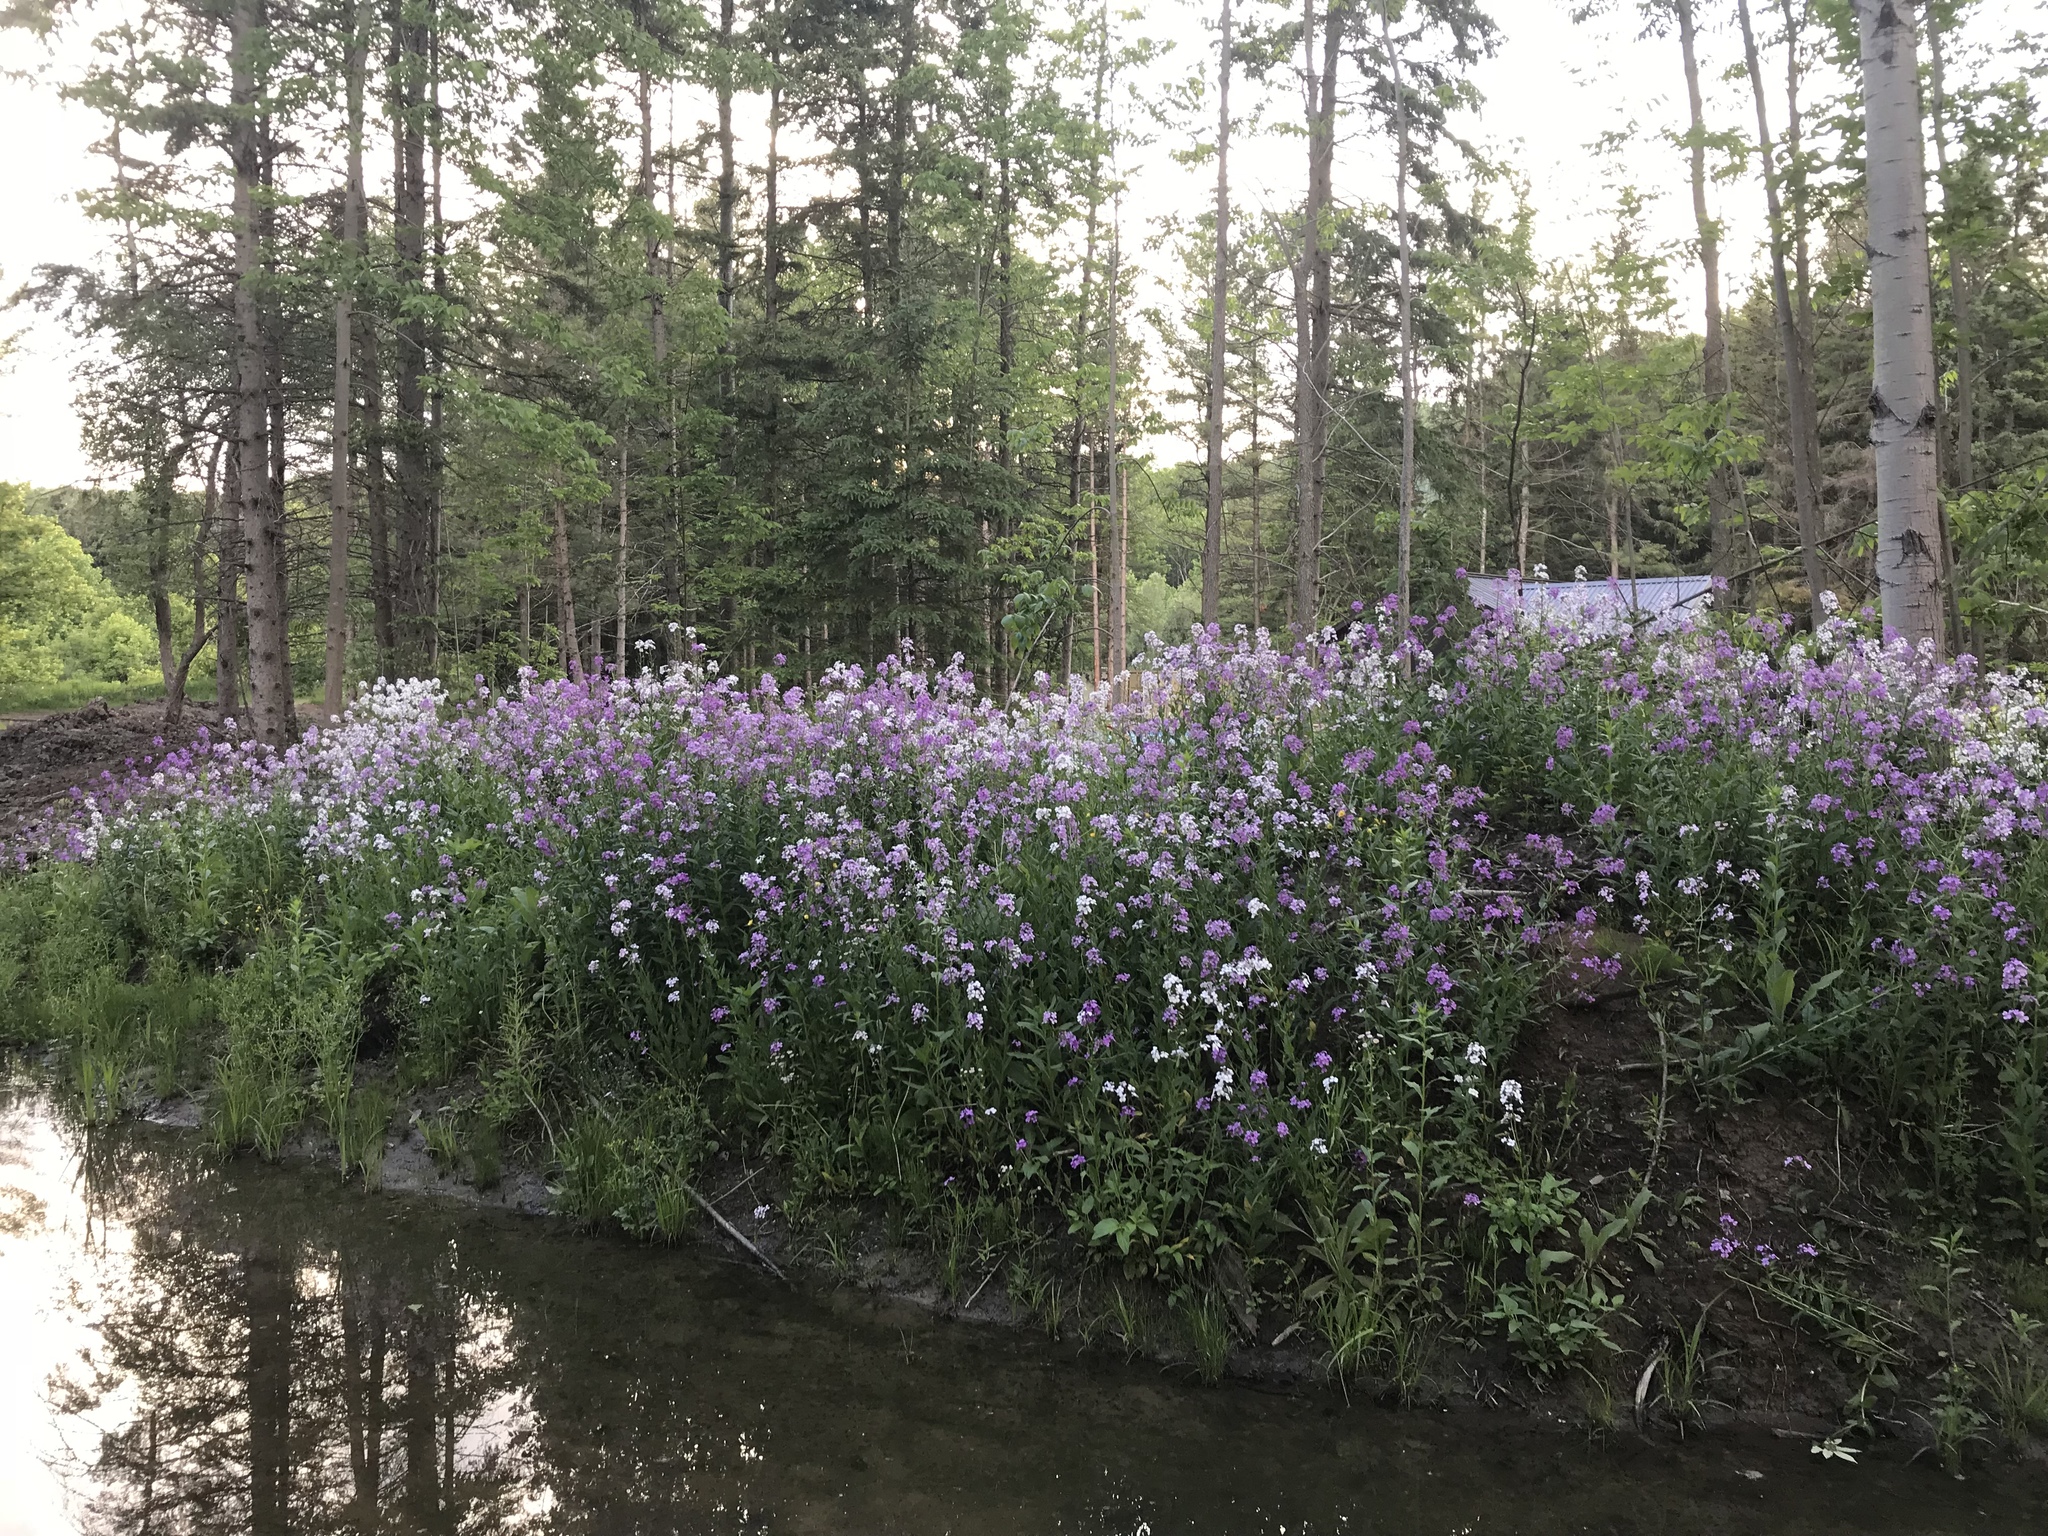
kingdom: Plantae
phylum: Tracheophyta
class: Magnoliopsida
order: Brassicales
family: Brassicaceae
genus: Hesperis
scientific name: Hesperis matronalis
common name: Dame's-violet
